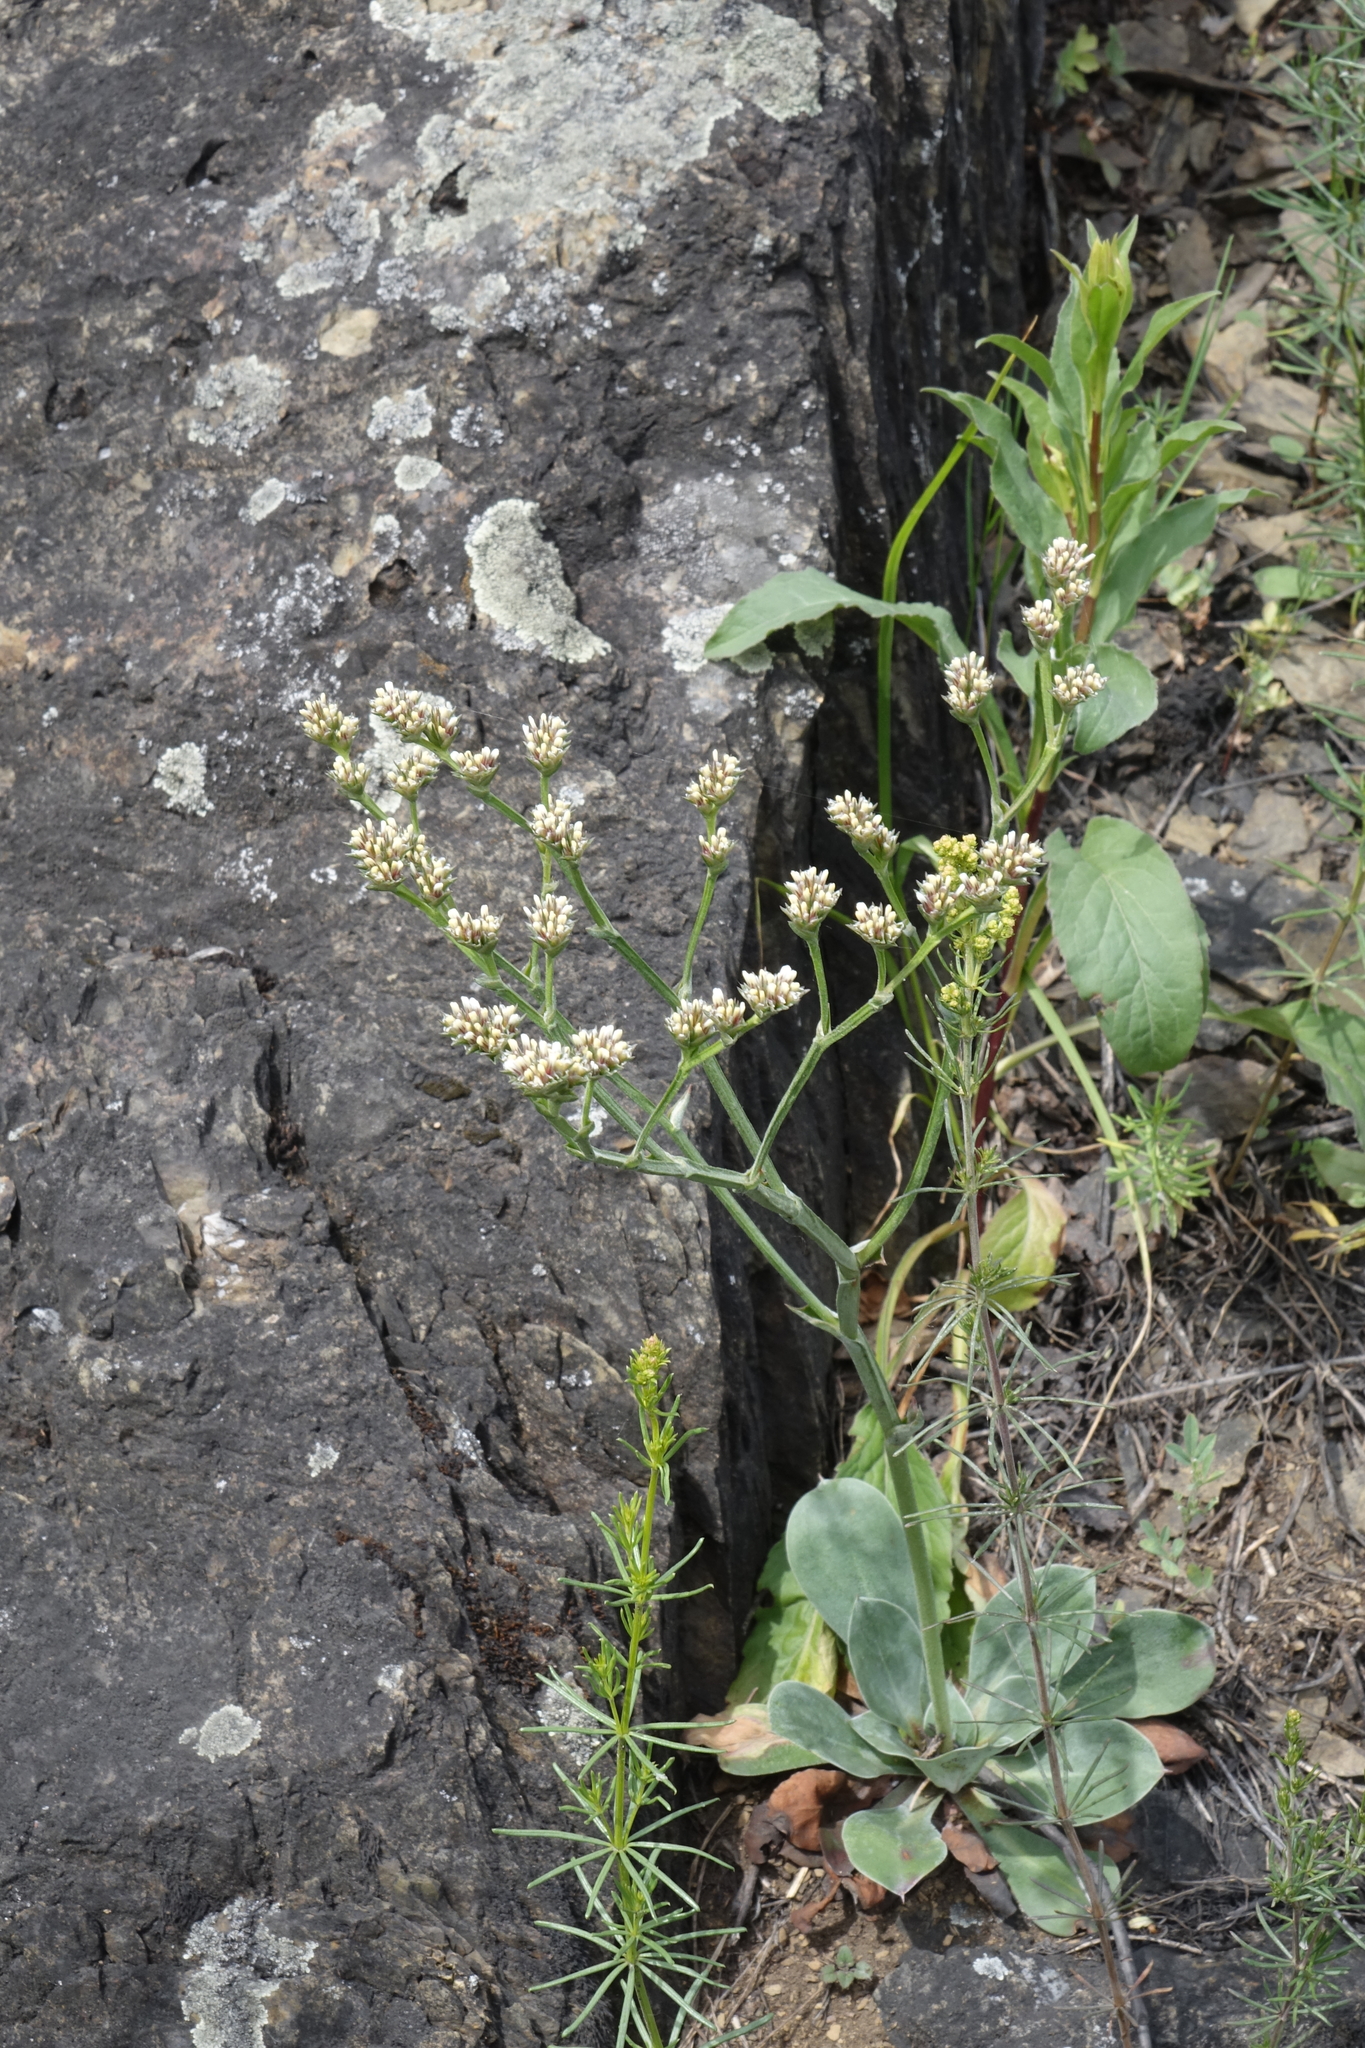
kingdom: Plantae
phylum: Tracheophyta
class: Magnoliopsida
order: Caryophyllales
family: Plumbaginaceae
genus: Goniolimon
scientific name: Goniolimon speciosum
